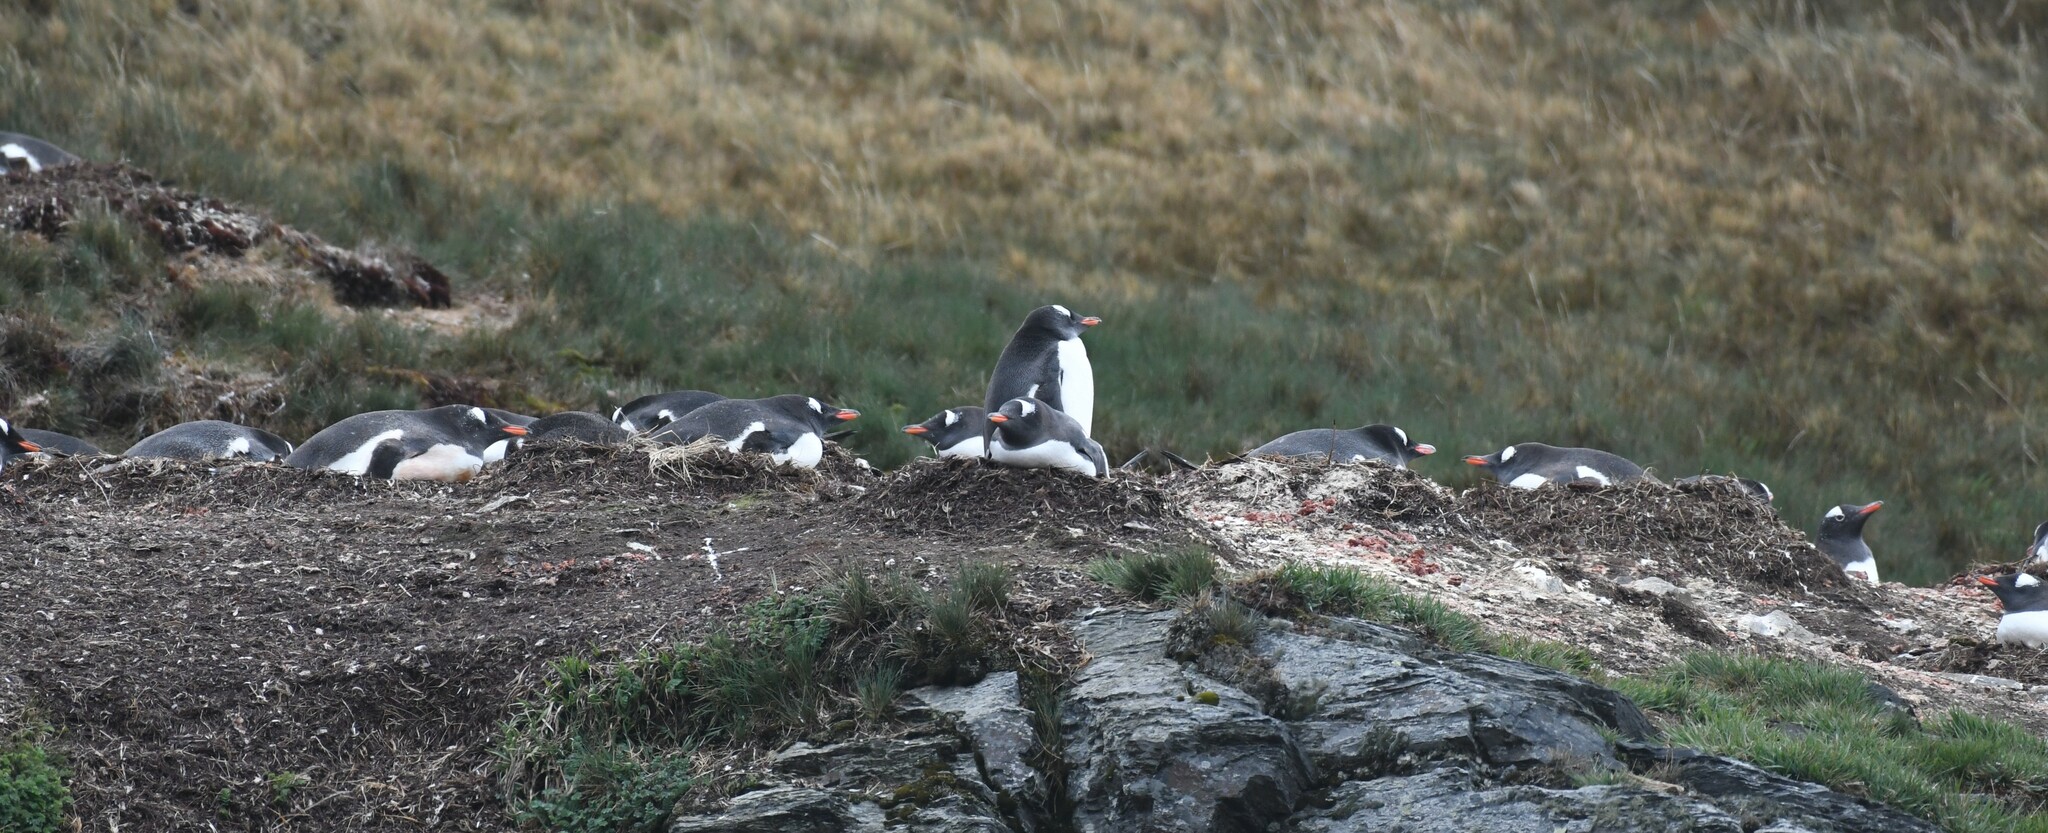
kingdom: Animalia
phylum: Chordata
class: Aves
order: Sphenisciformes
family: Spheniscidae
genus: Pygoscelis
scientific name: Pygoscelis papua
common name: Gentoo penguin
